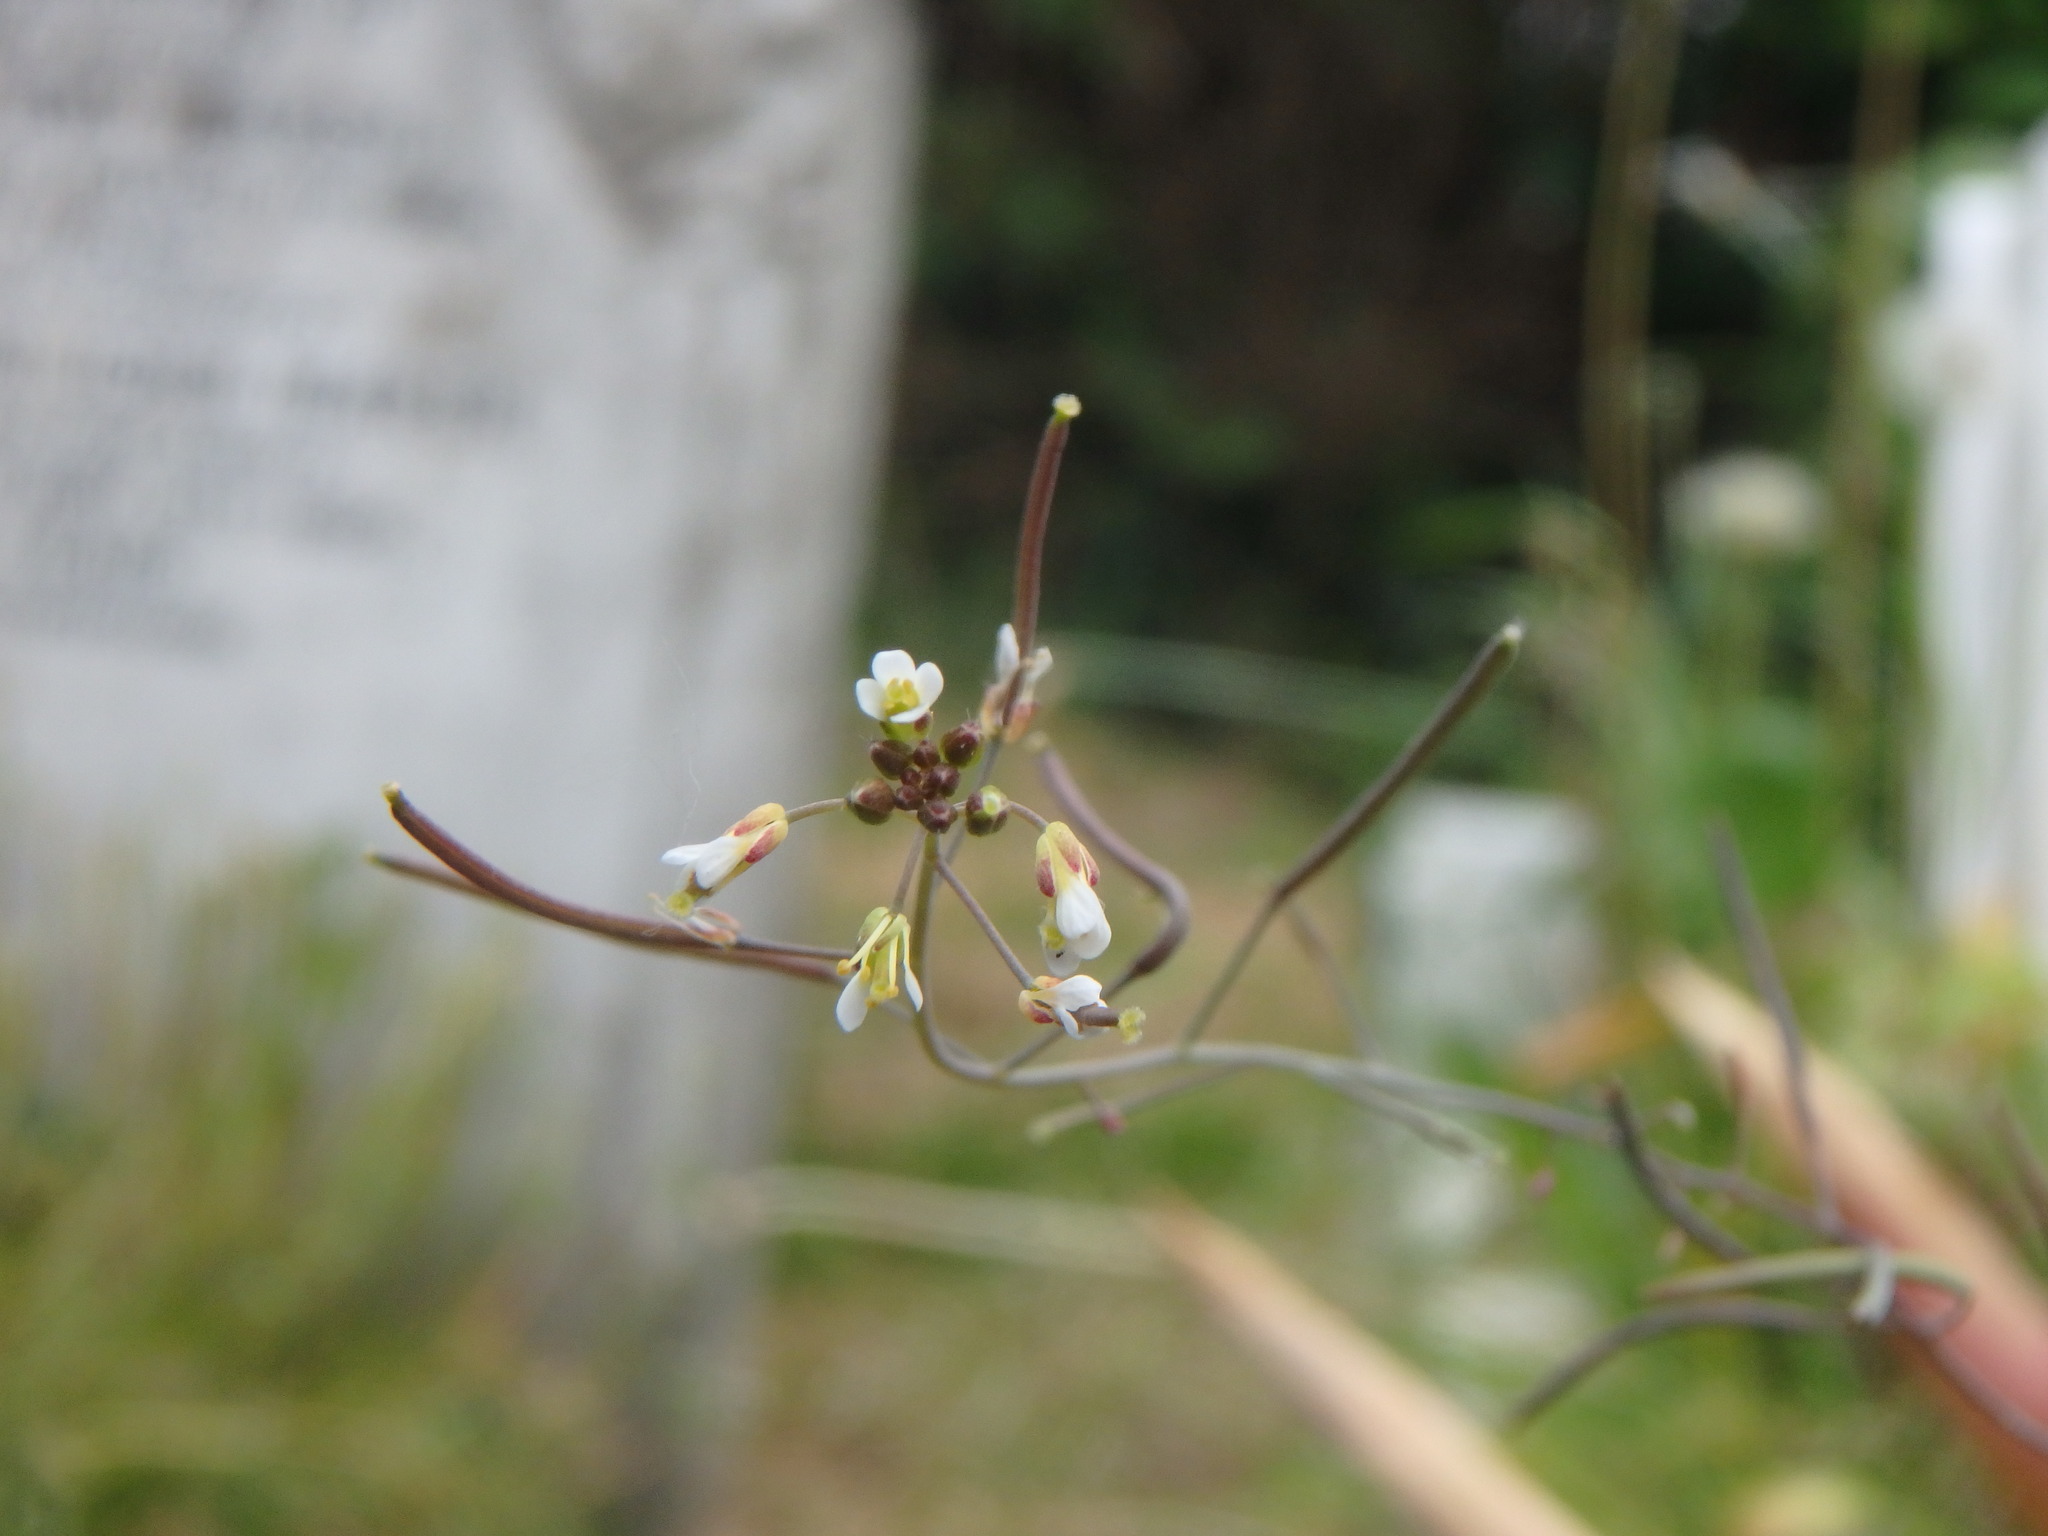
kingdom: Plantae
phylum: Tracheophyta
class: Magnoliopsida
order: Brassicales
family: Brassicaceae
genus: Arabidopsis
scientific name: Arabidopsis thaliana
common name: Thale cress
